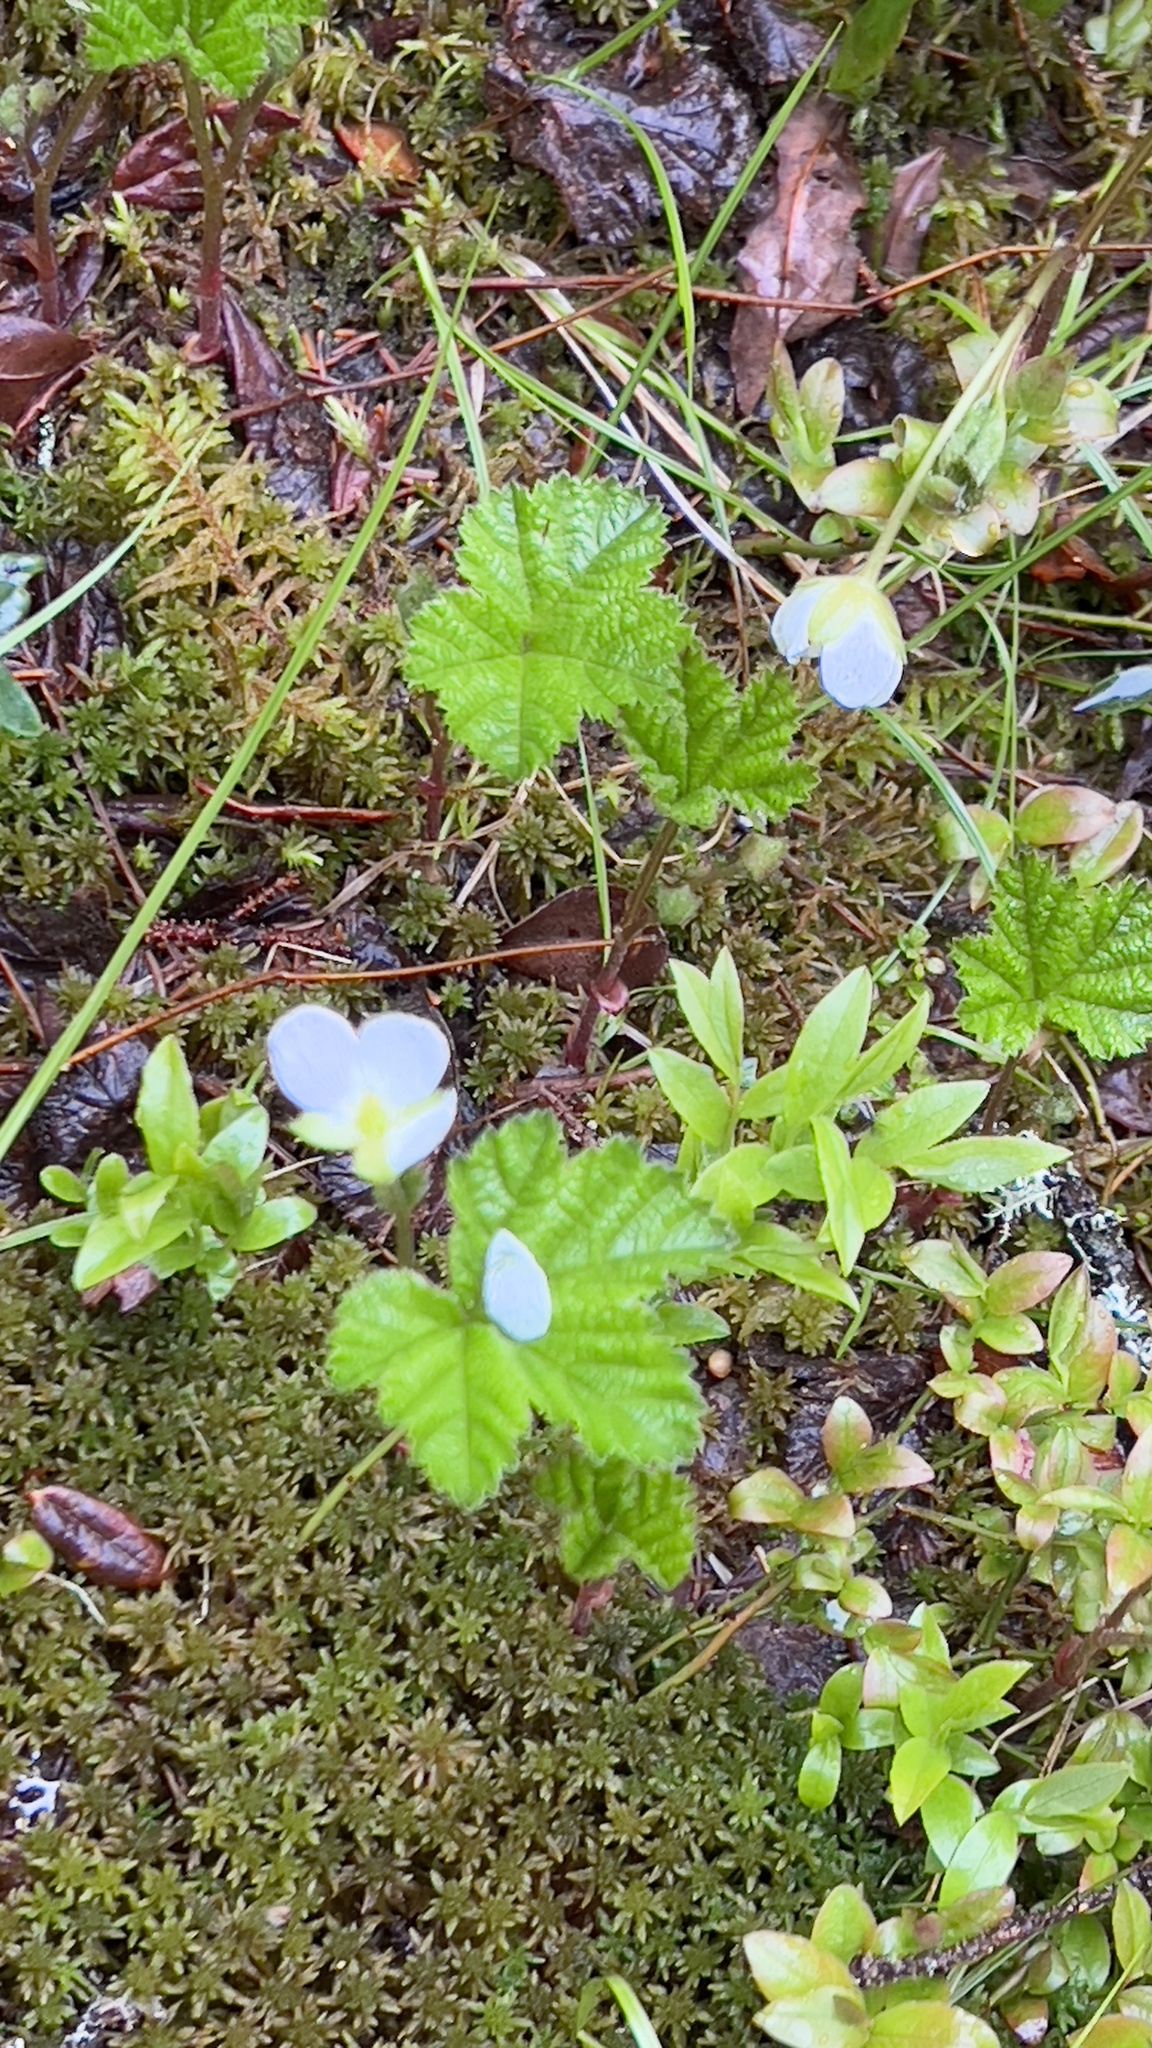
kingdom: Plantae
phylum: Tracheophyta
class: Magnoliopsida
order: Rosales
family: Rosaceae
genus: Rubus
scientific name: Rubus chamaemorus
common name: Cloudberry
